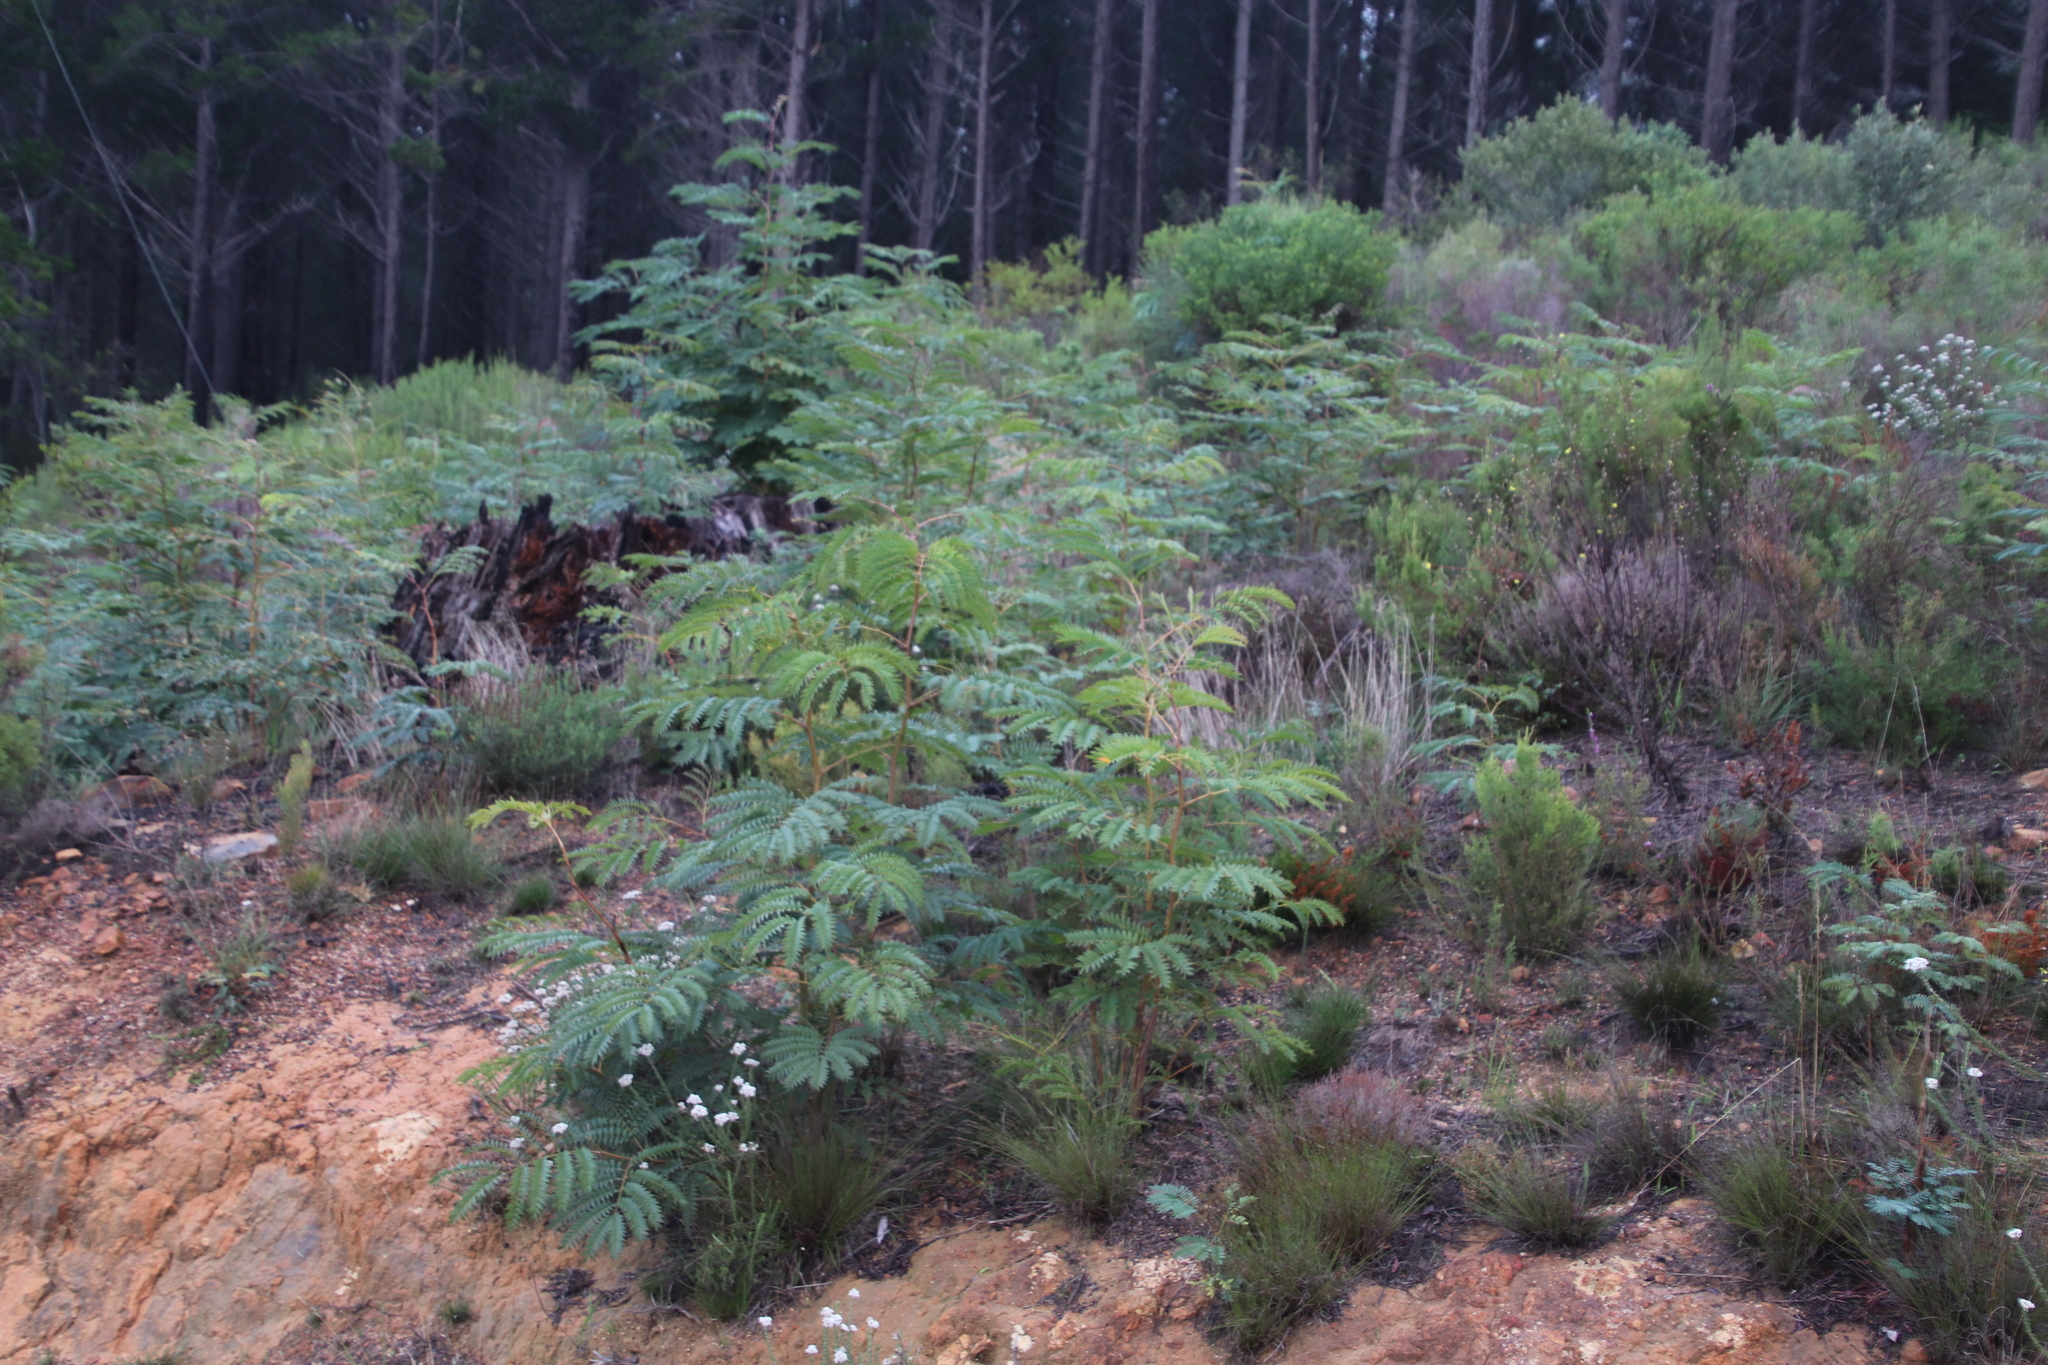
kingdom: Plantae
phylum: Tracheophyta
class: Magnoliopsida
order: Fabales
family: Fabaceae
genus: Acacia
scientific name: Acacia elata
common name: Cedar wattle
